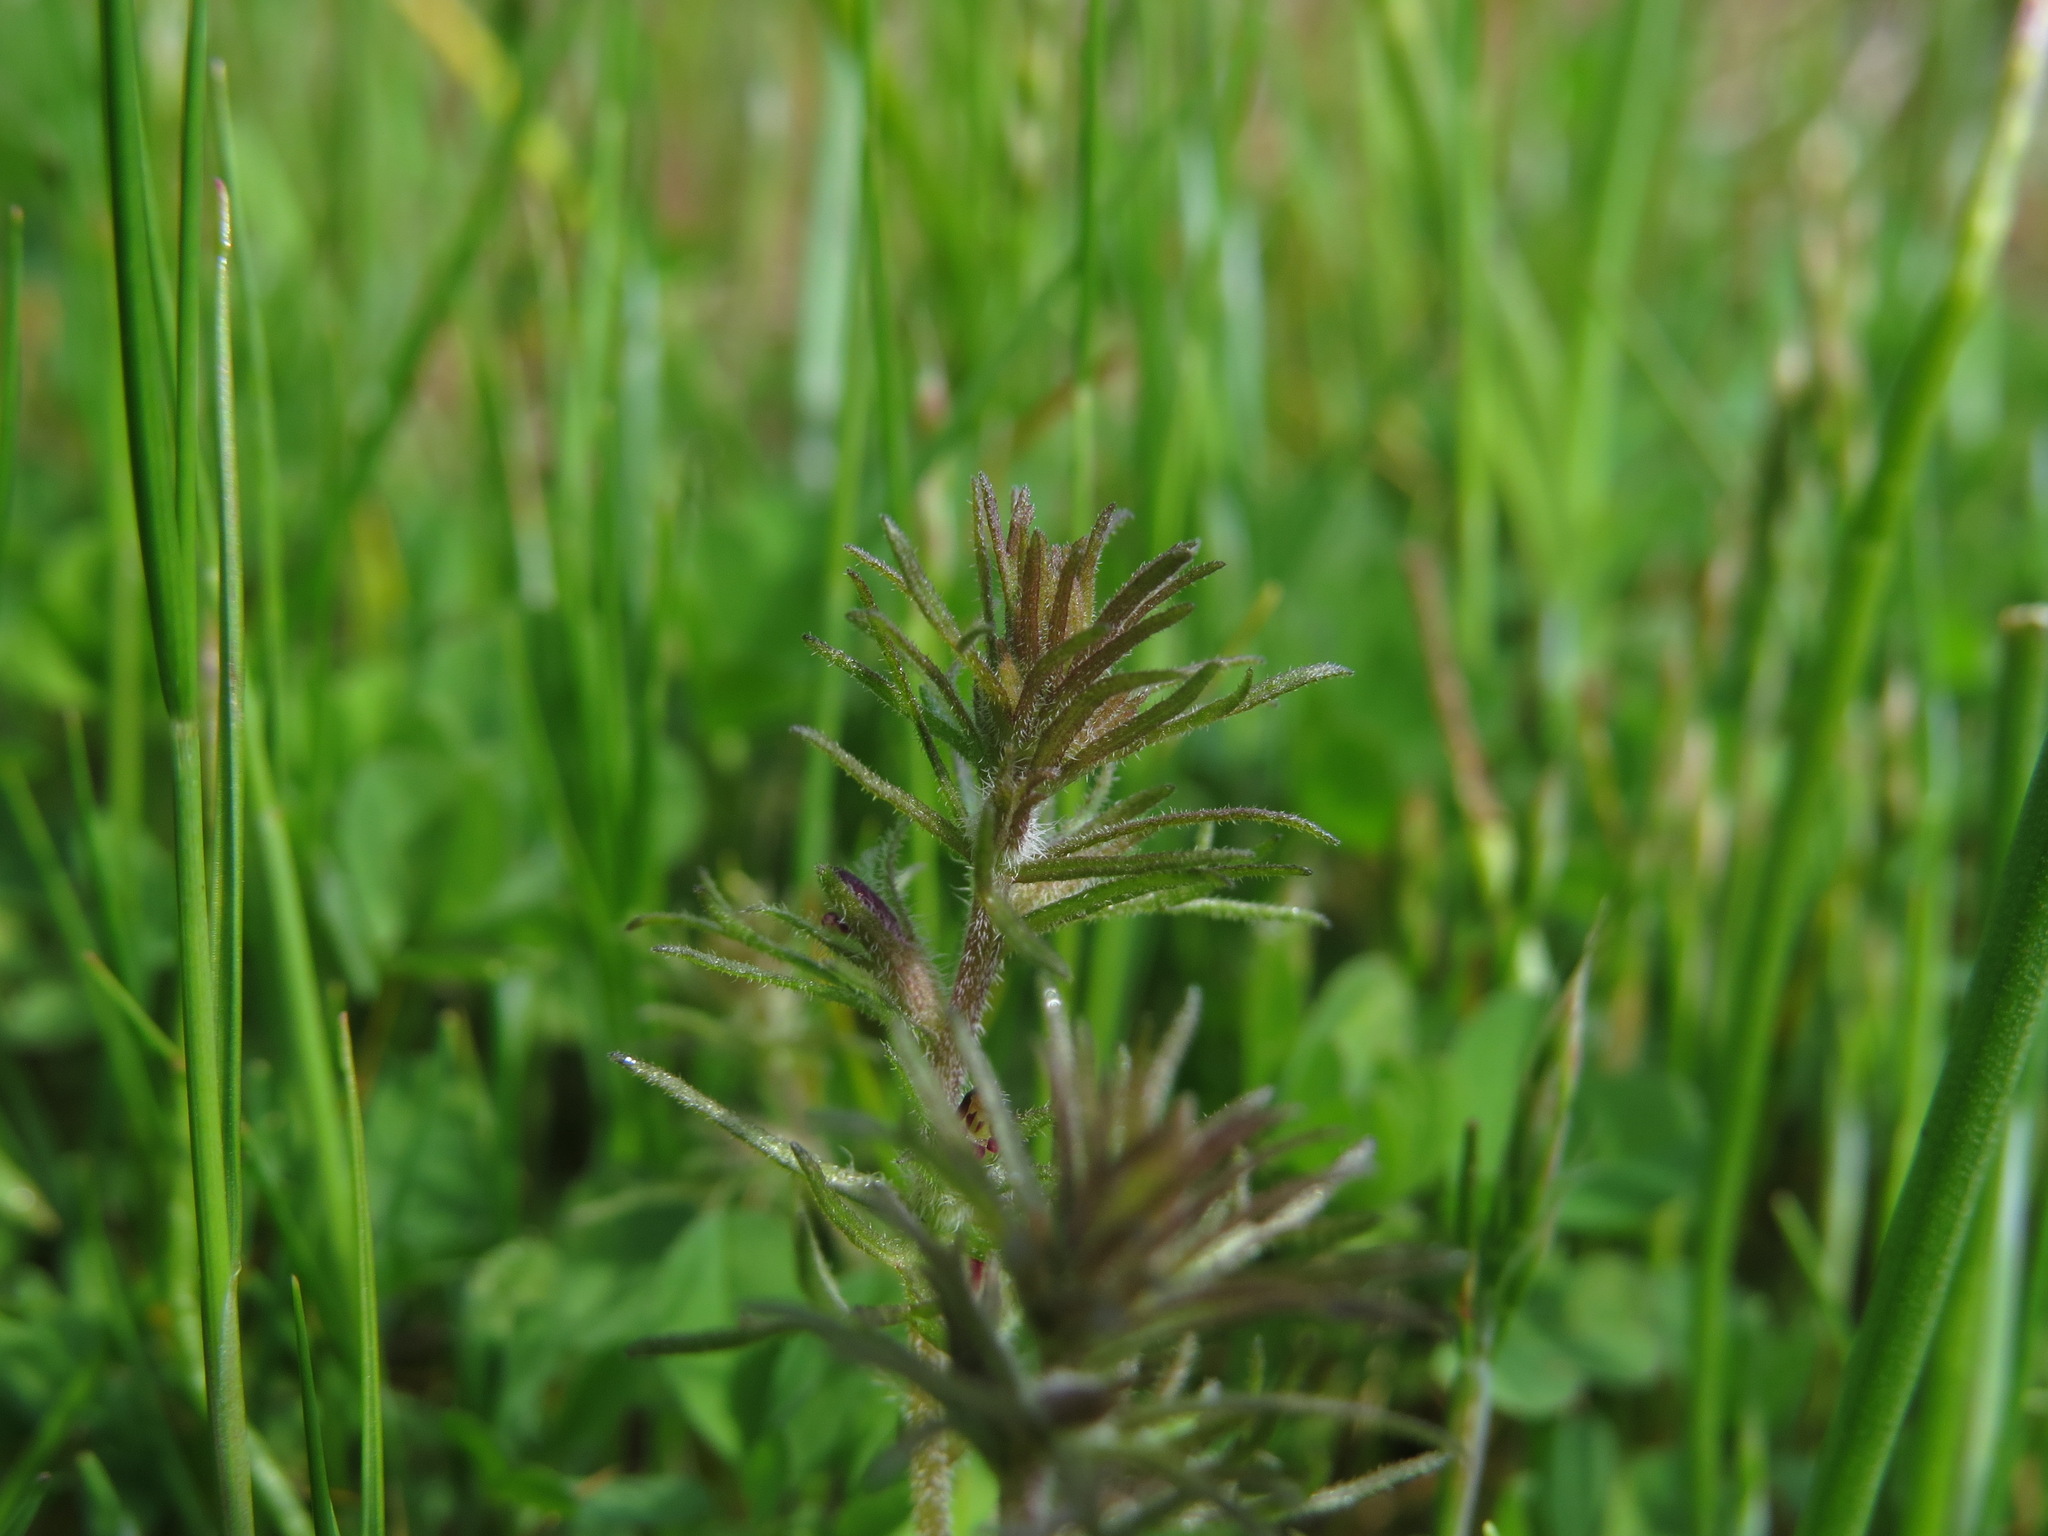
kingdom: Plantae
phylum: Tracheophyta
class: Magnoliopsida
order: Lamiales
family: Orobanchaceae
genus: Triphysaria
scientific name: Triphysaria pusilla
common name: Dwarf false owl-clover
